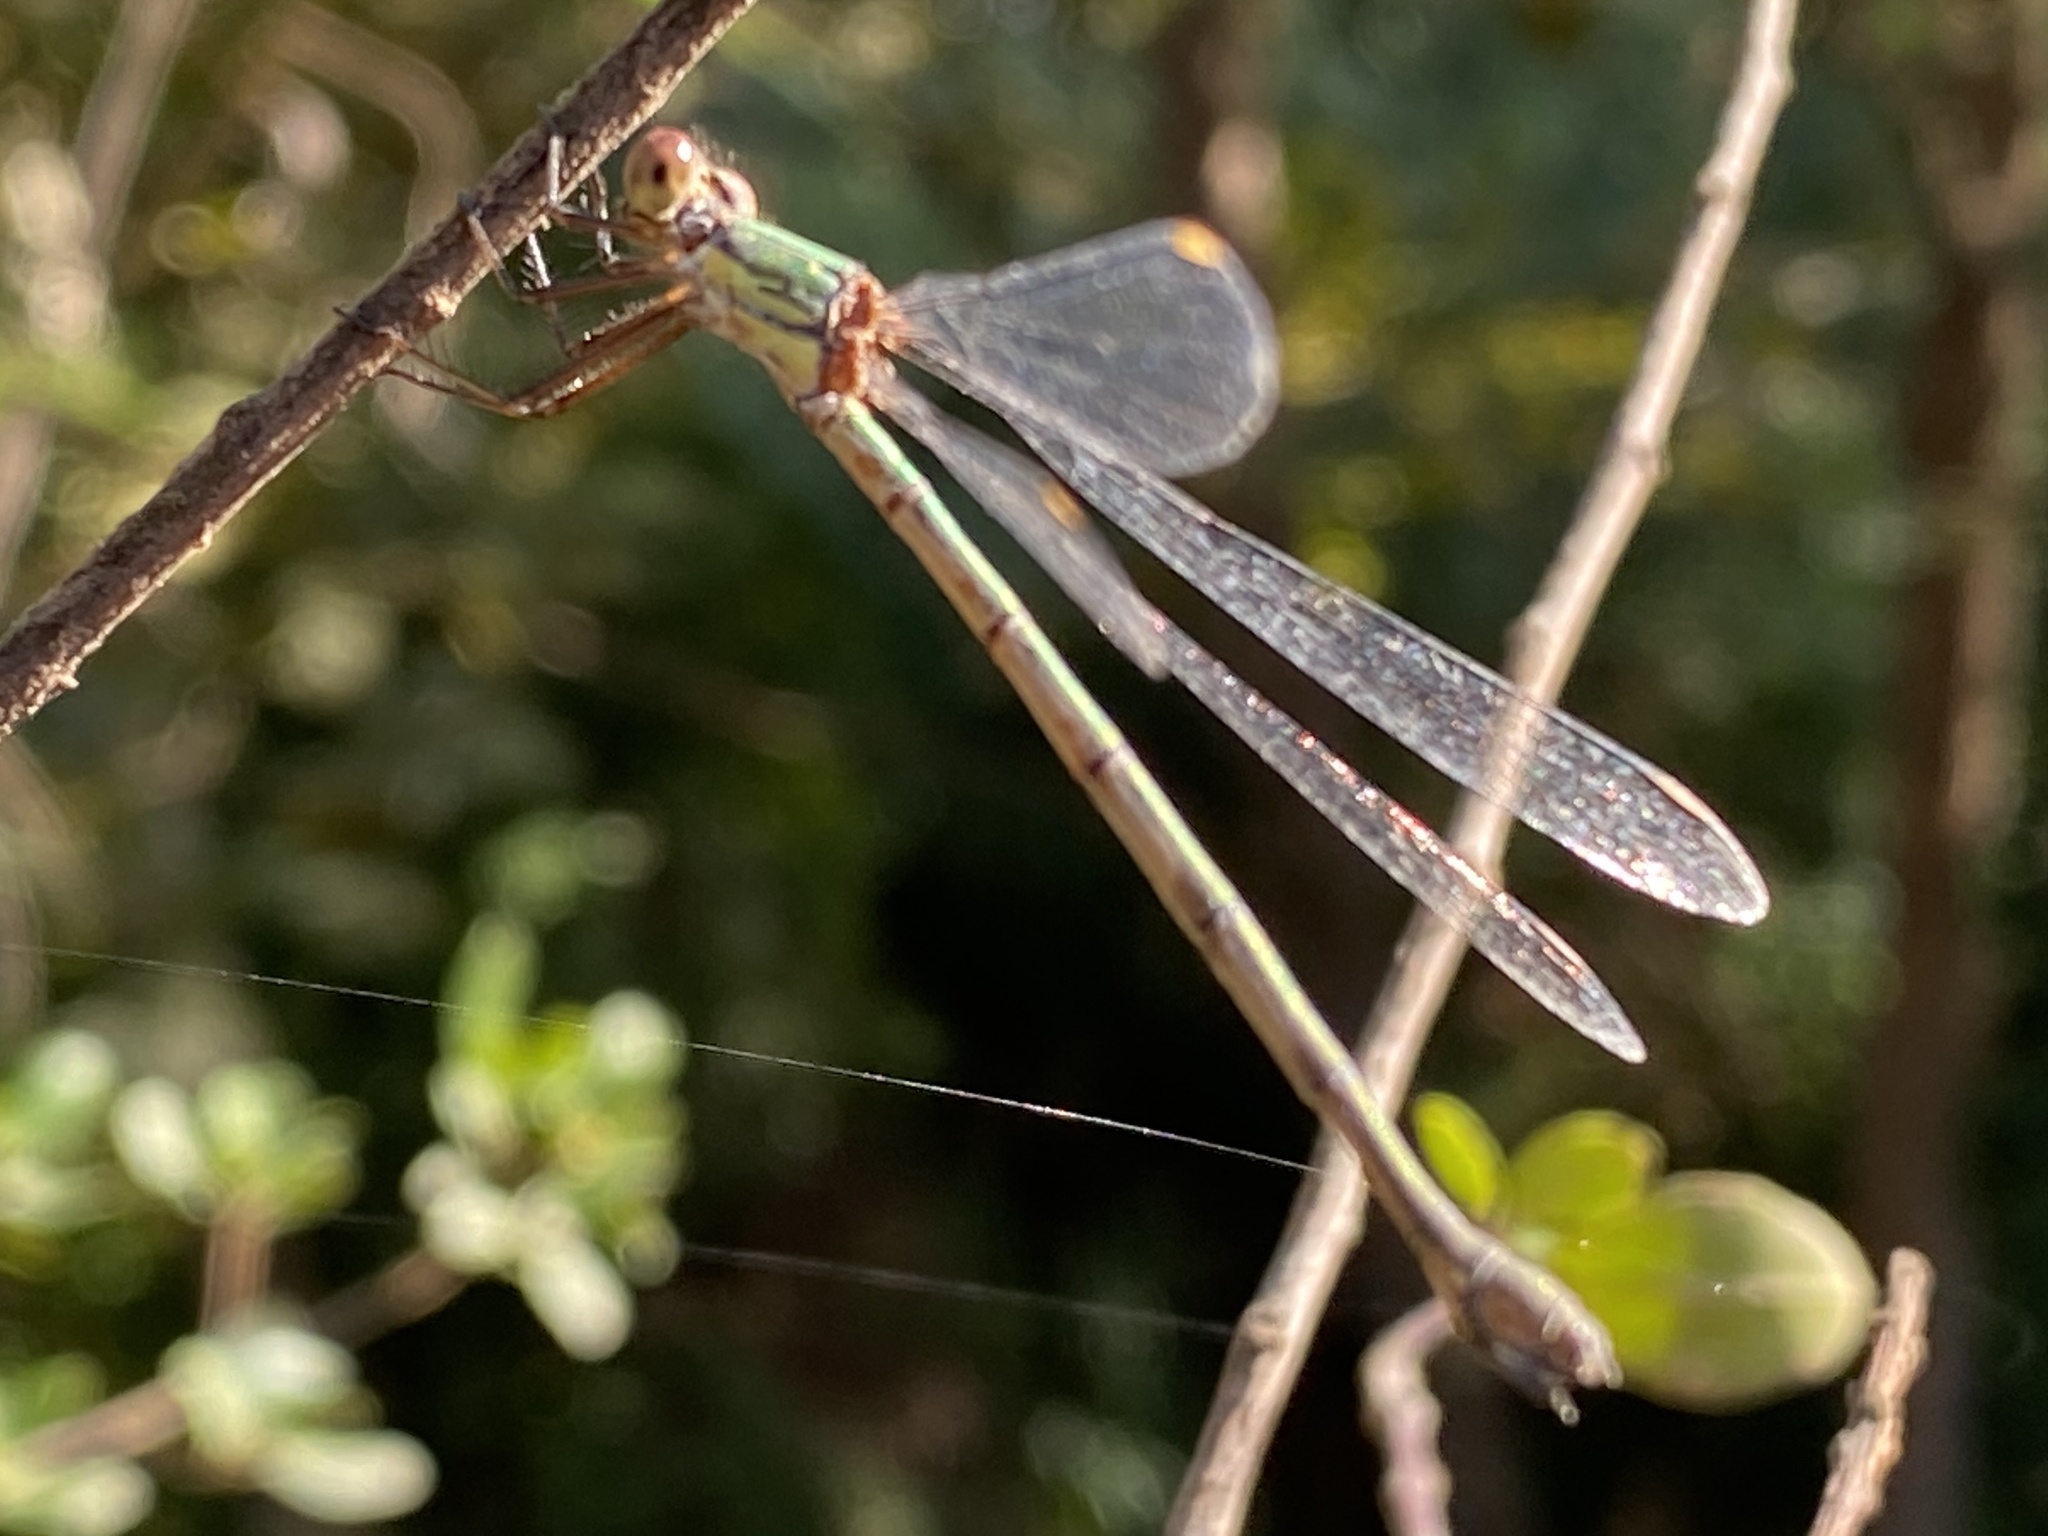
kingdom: Animalia
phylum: Arthropoda
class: Insecta
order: Odonata
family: Lestidae
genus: Chalcolestes
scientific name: Chalcolestes viridis
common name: Green emerald damselfly
